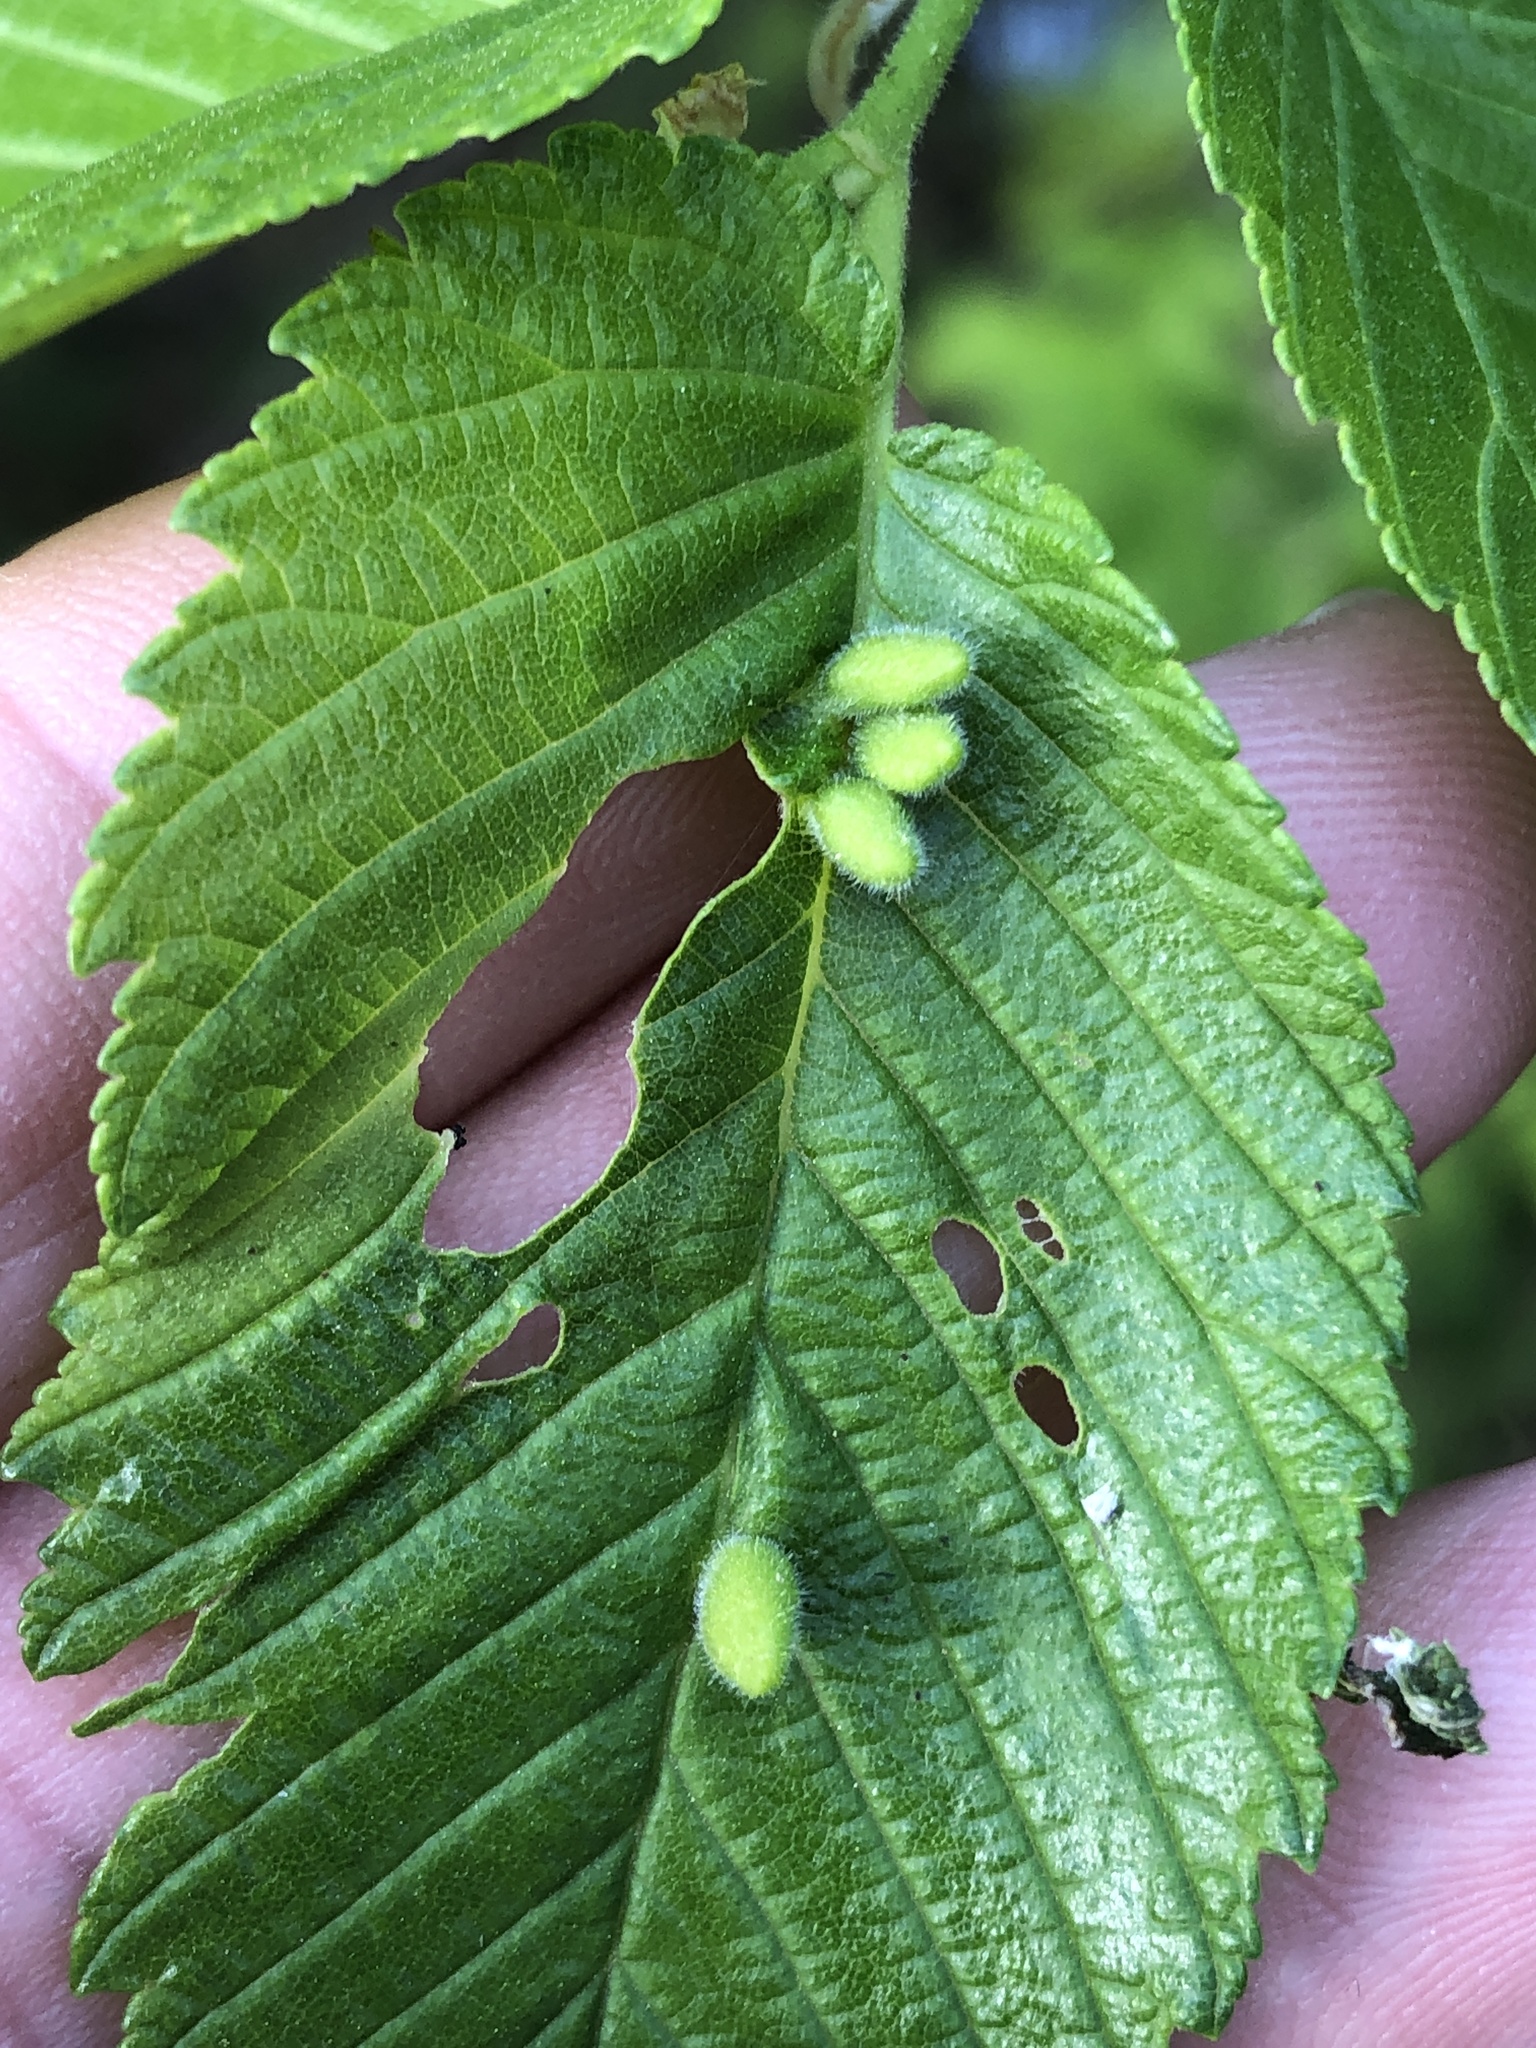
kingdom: Animalia
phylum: Arthropoda
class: Arachnida
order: Trombidiformes
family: Eriophyidae
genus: Aceria
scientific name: Aceria
